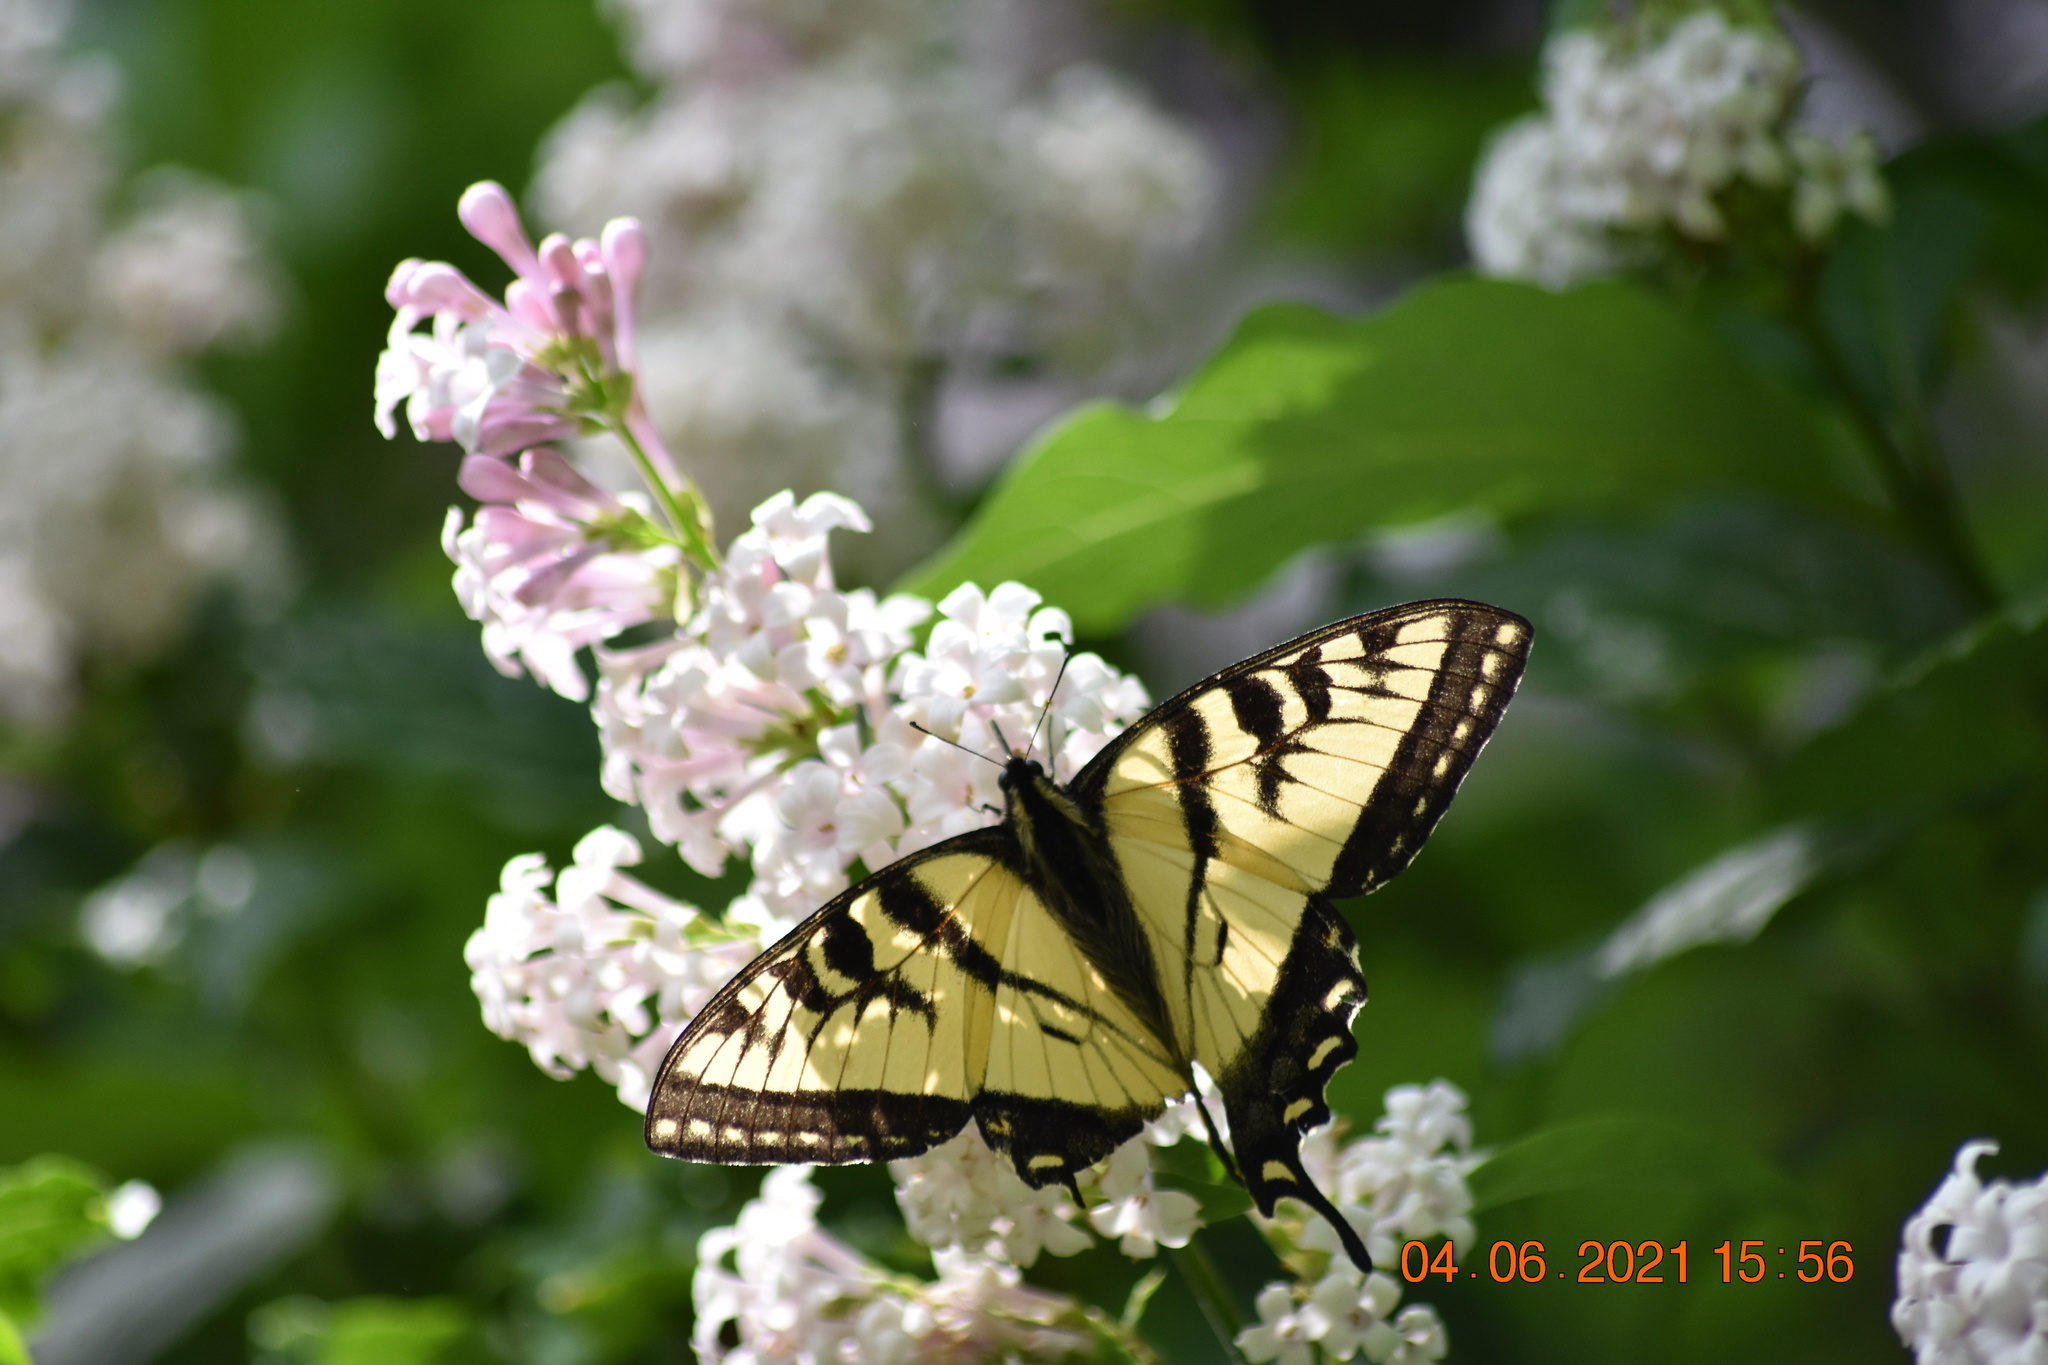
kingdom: Animalia
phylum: Arthropoda
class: Insecta
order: Lepidoptera
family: Papilionidae
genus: Papilio
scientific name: Papilio canadensis
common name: Canadian tiger swallowtail
